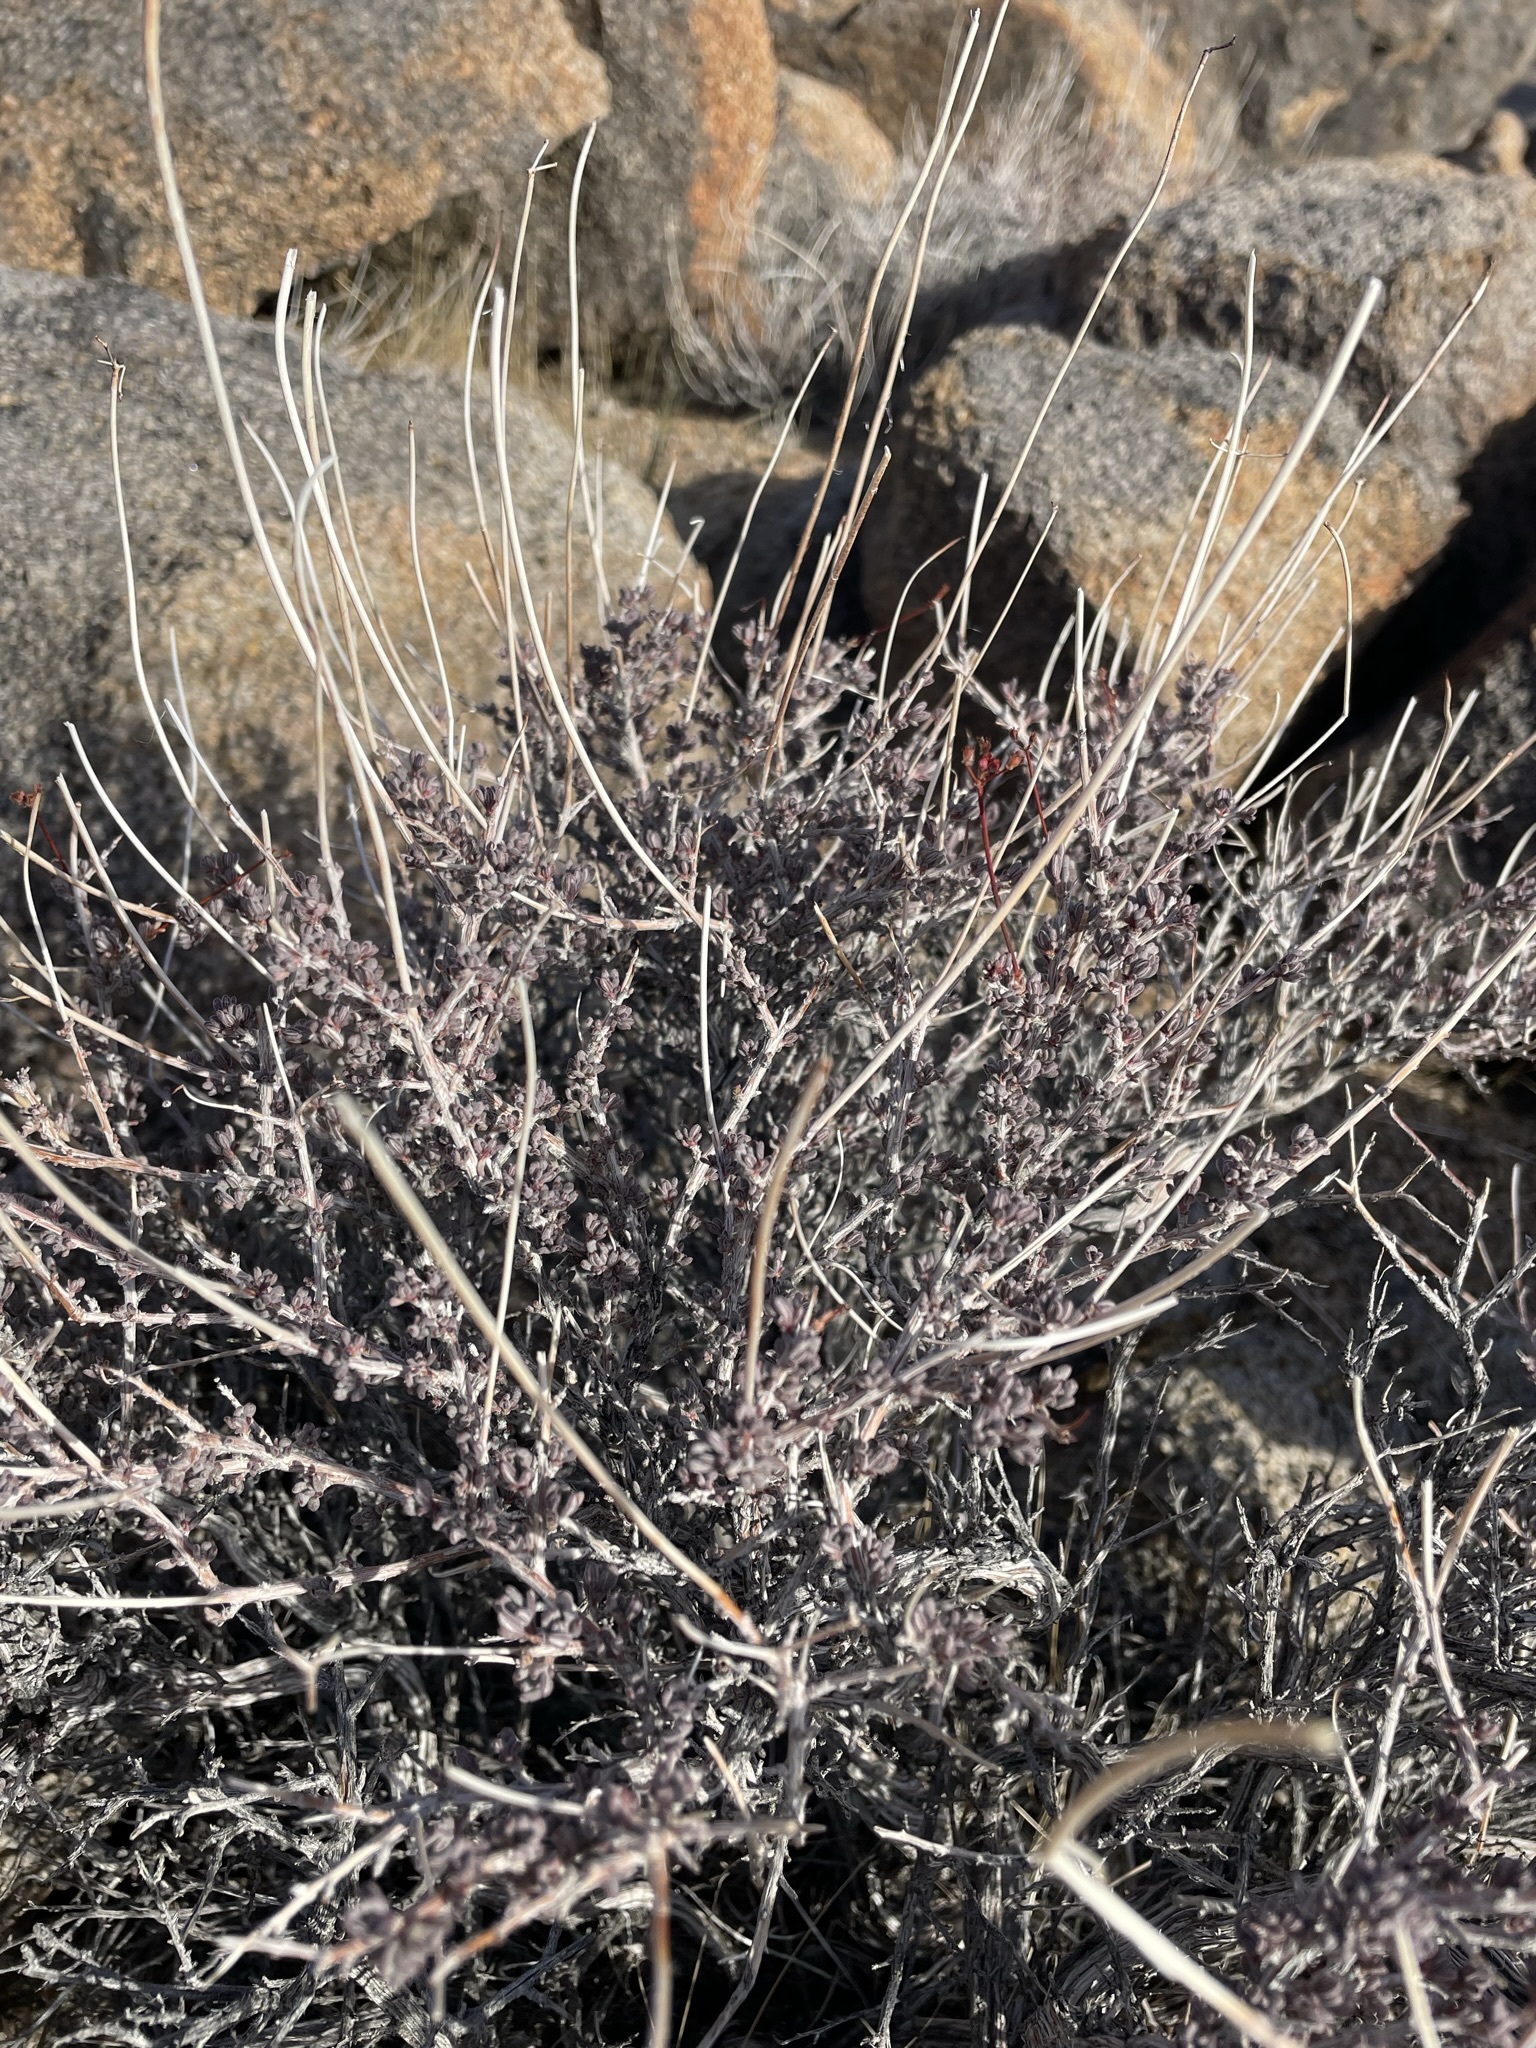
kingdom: Plantae
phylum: Tracheophyta
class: Magnoliopsida
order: Caryophyllales
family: Polygonaceae
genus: Eriogonum
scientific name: Eriogonum fasciculatum
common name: California wild buckwheat
